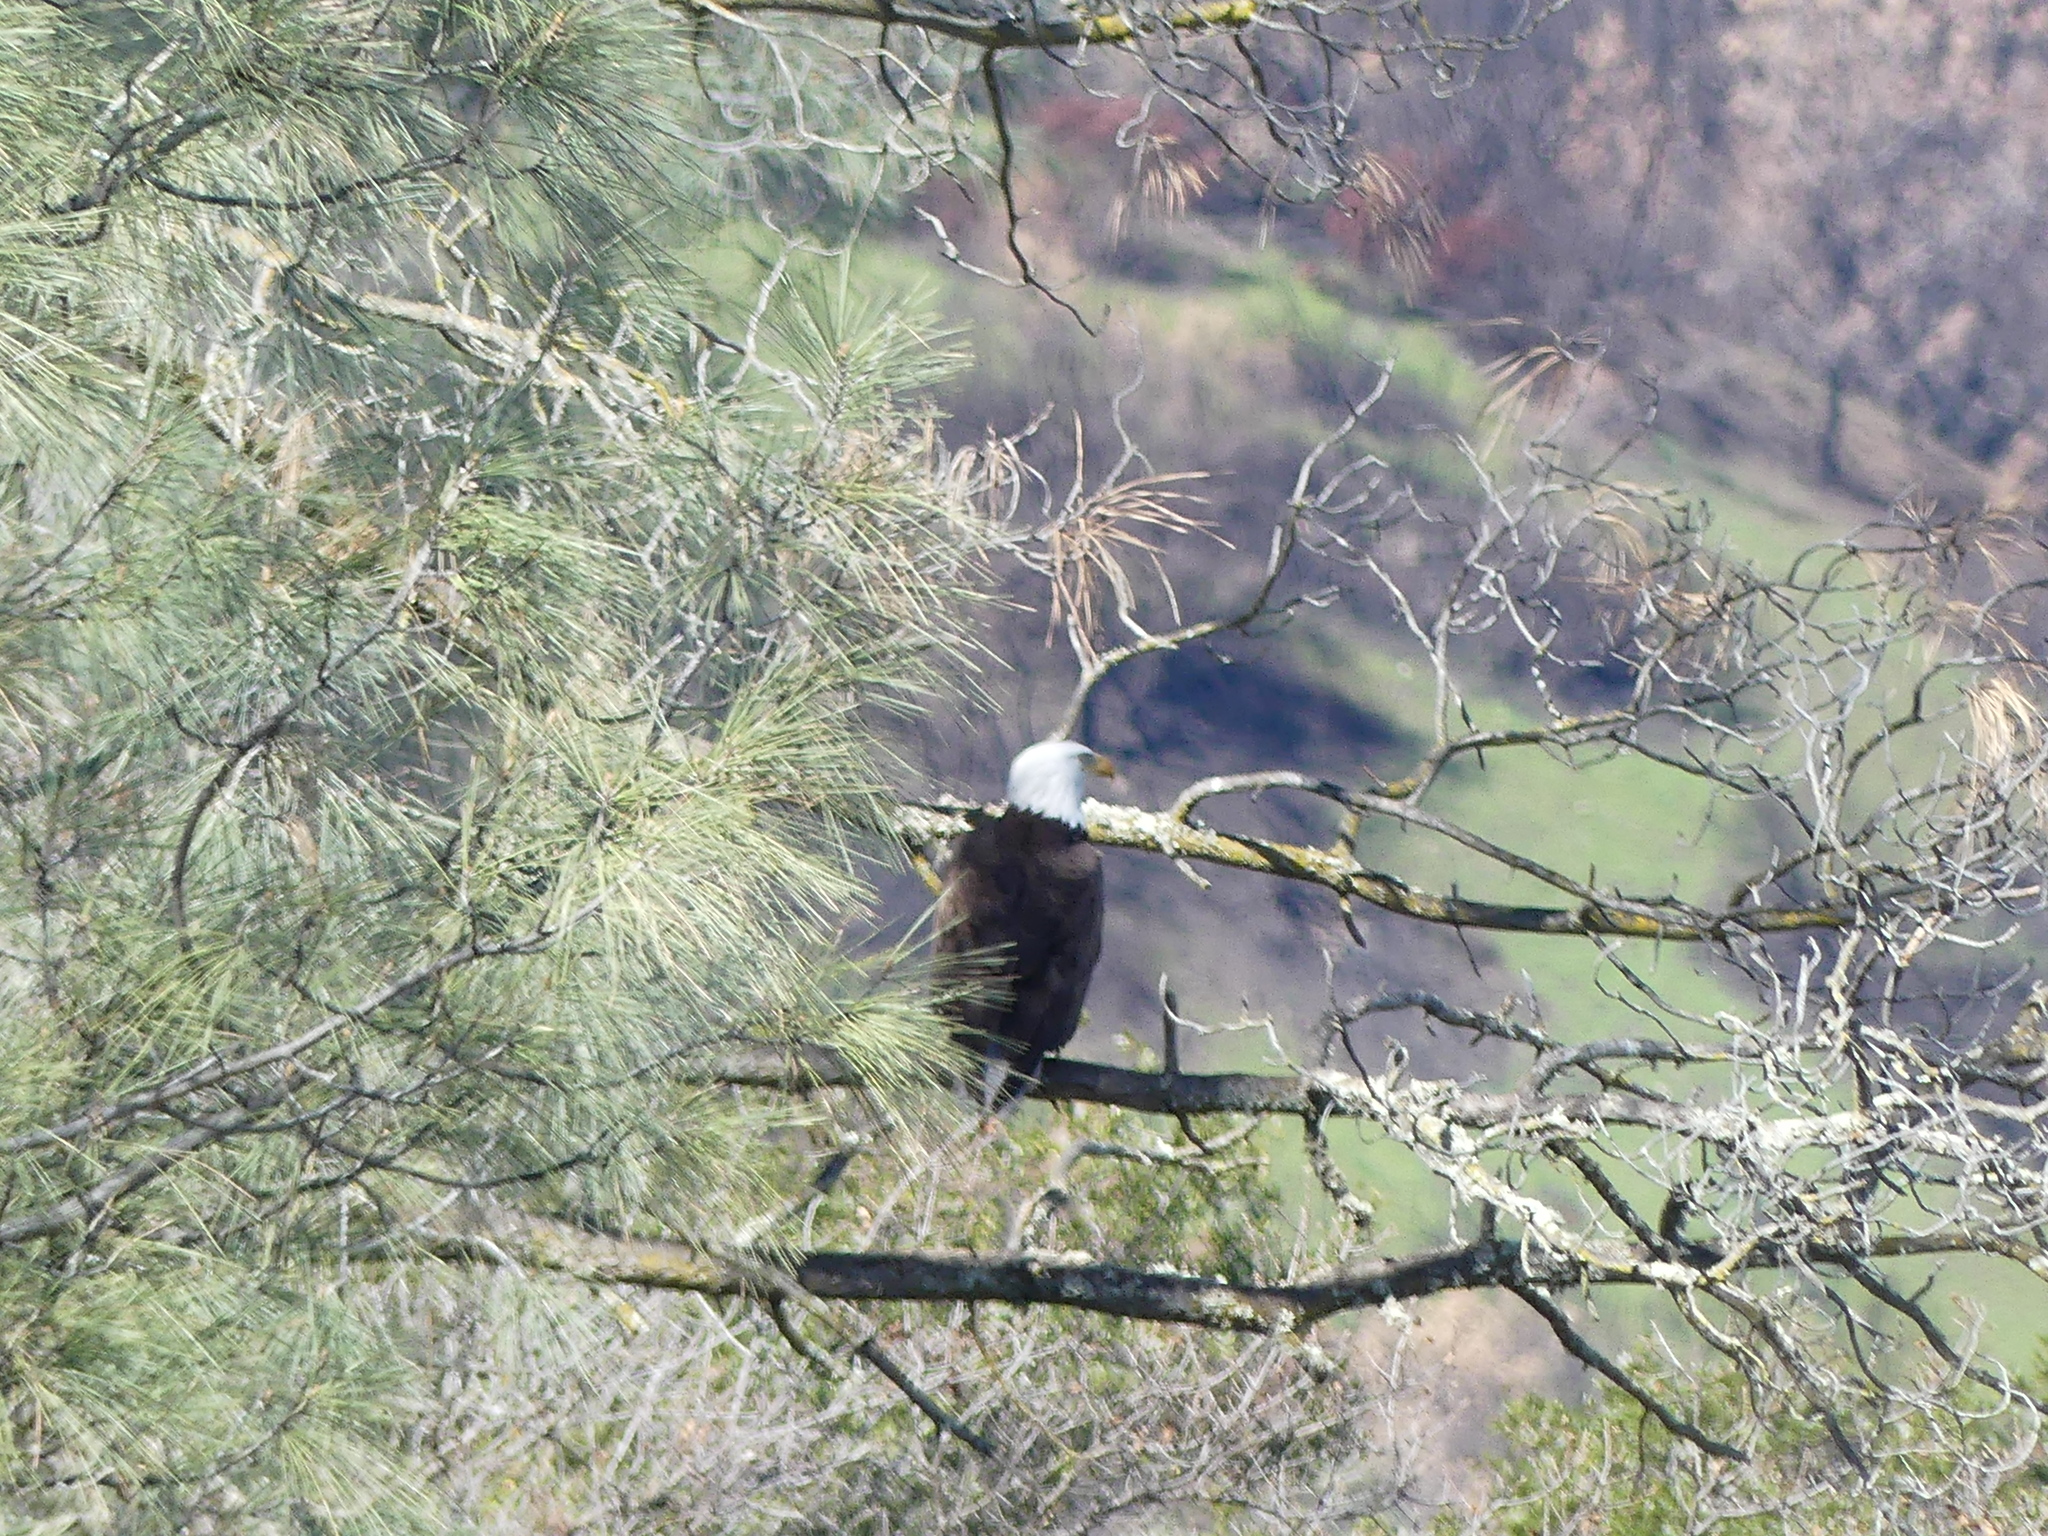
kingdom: Animalia
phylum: Chordata
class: Aves
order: Accipitriformes
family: Accipitridae
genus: Haliaeetus
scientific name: Haliaeetus leucocephalus
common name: Bald eagle
